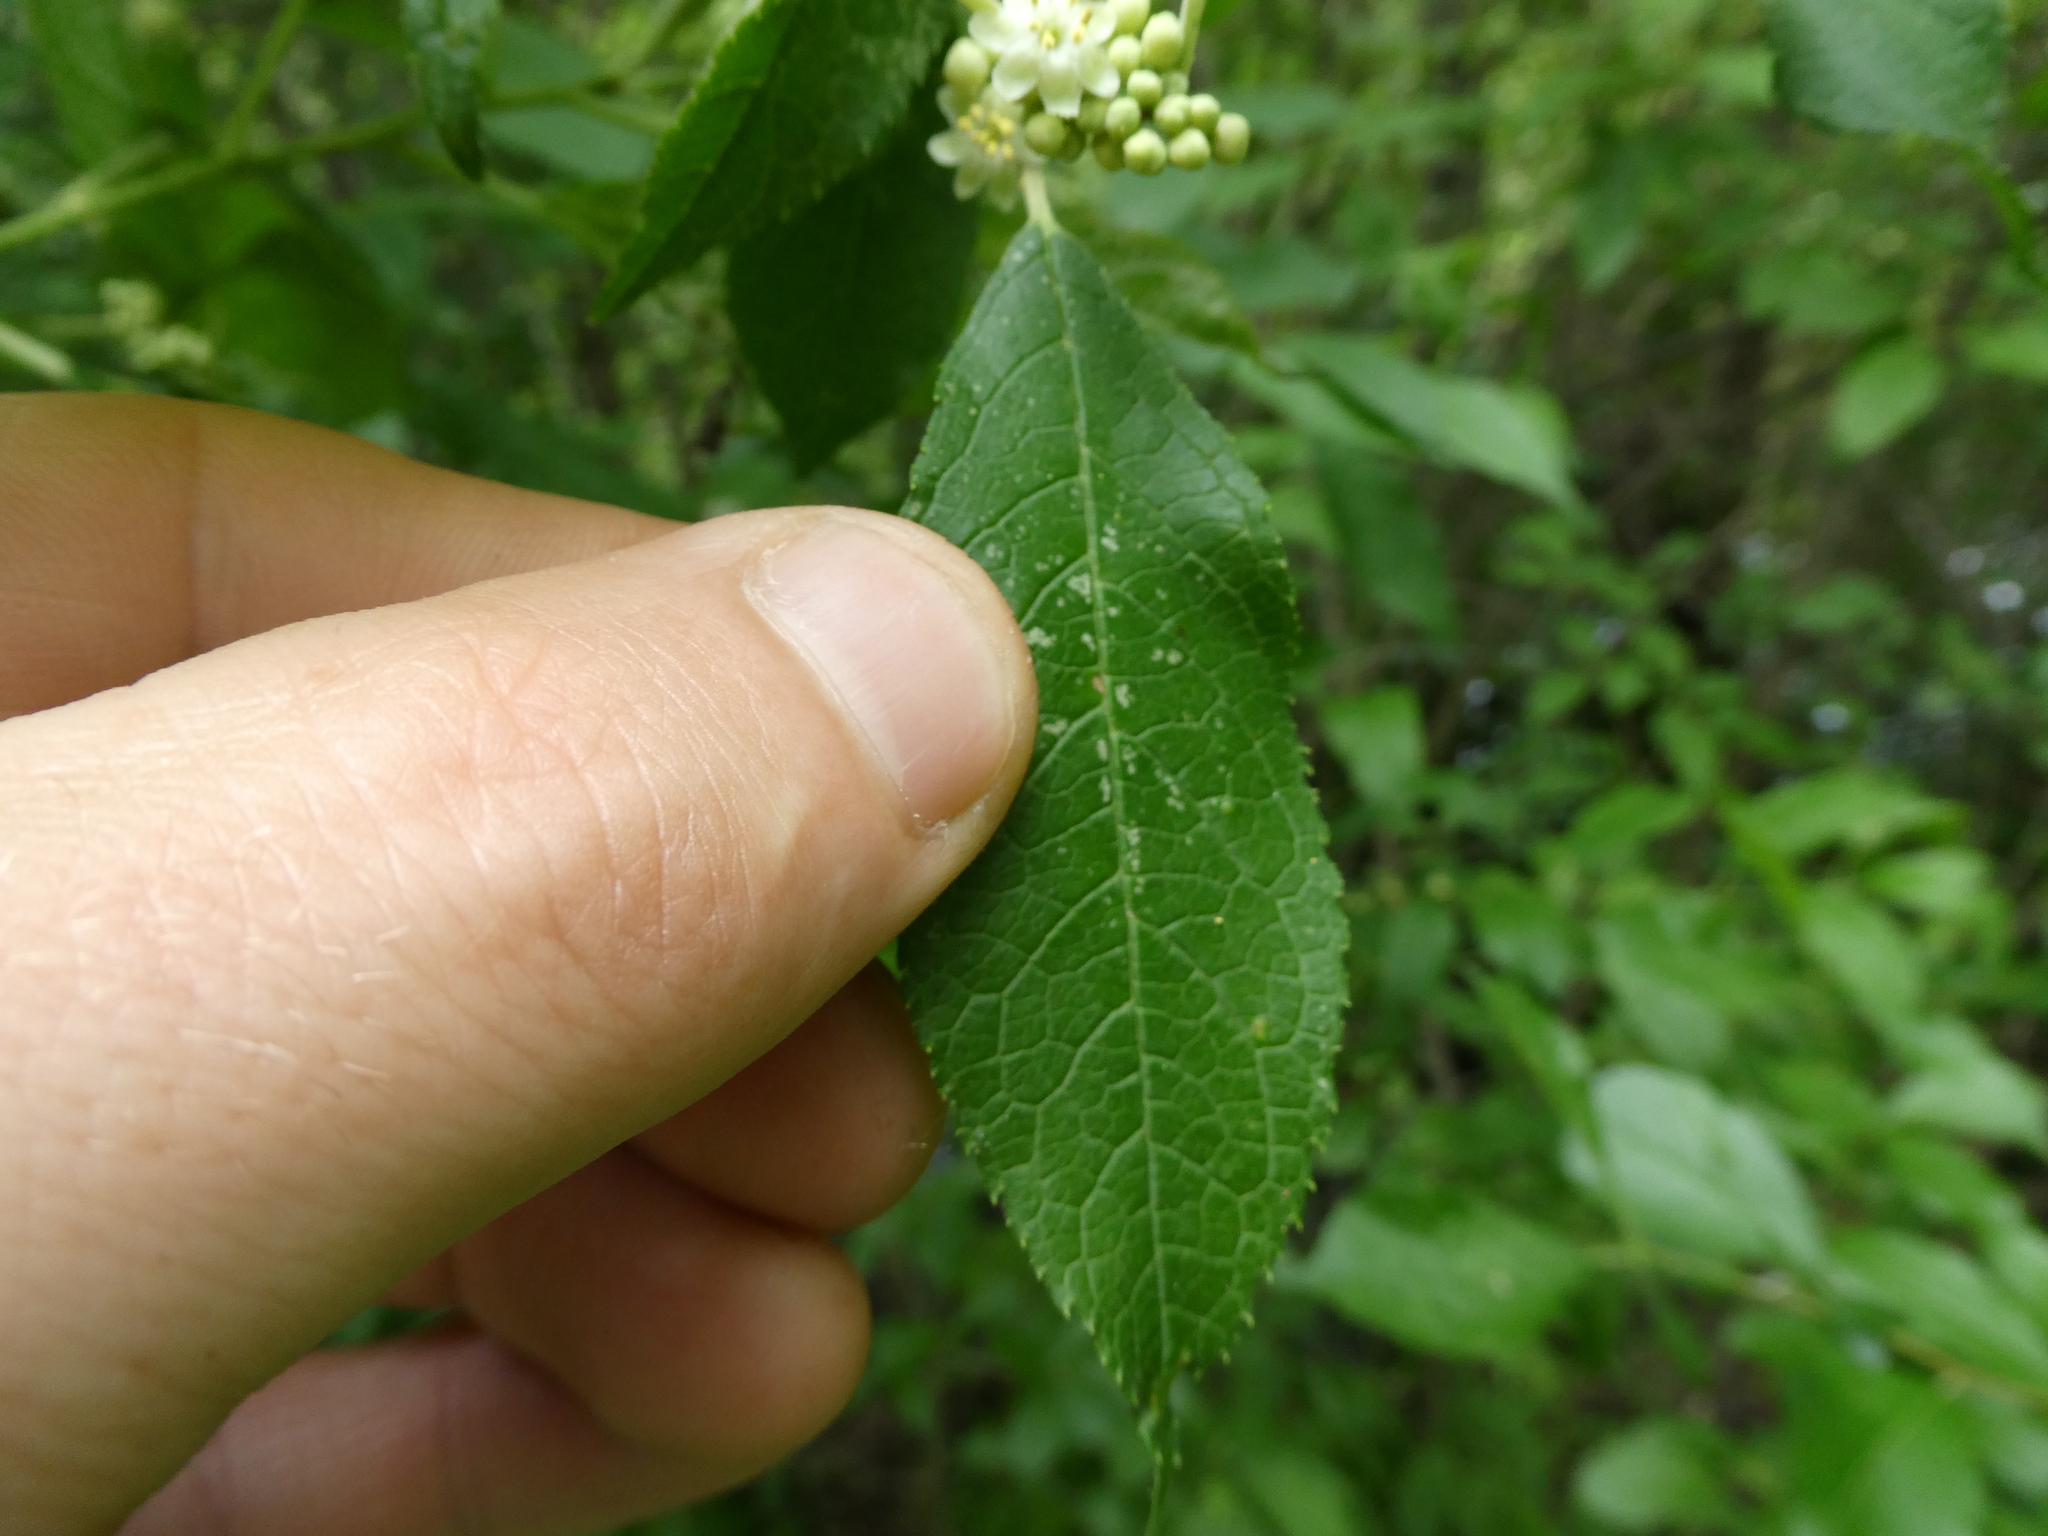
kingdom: Plantae
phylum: Tracheophyta
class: Magnoliopsida
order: Aquifoliales
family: Aquifoliaceae
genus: Ilex
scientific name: Ilex verticillata
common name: Virginia winterberry
